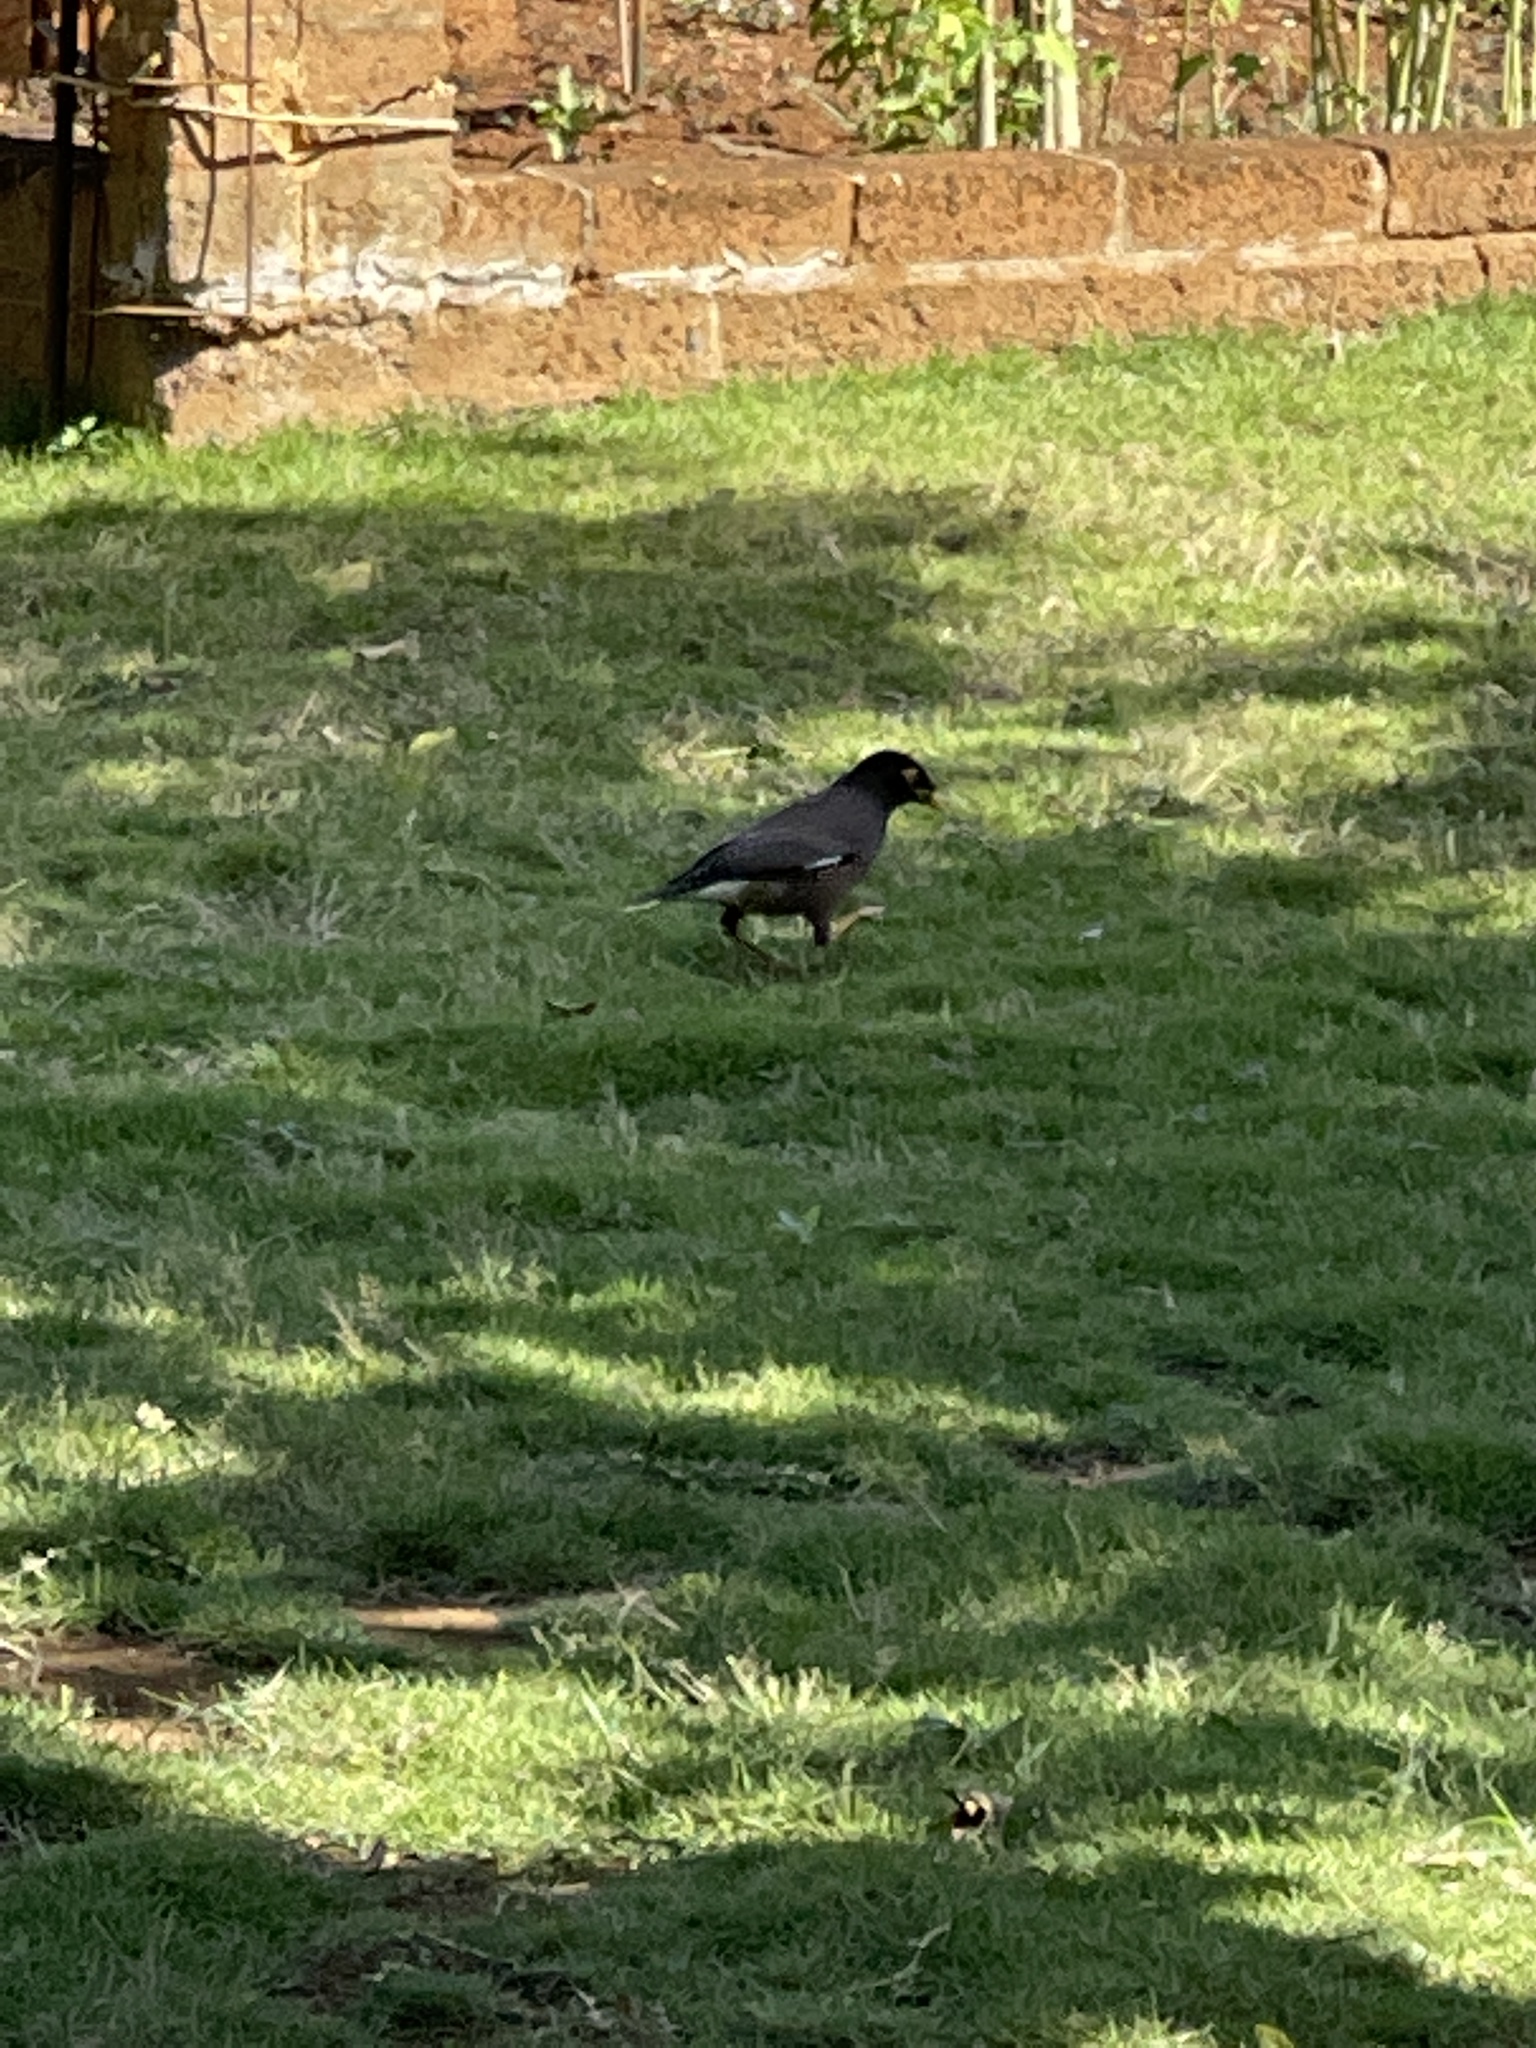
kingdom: Animalia
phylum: Chordata
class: Aves
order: Passeriformes
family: Sturnidae
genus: Acridotheres
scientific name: Acridotheres tristis
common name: Common myna
